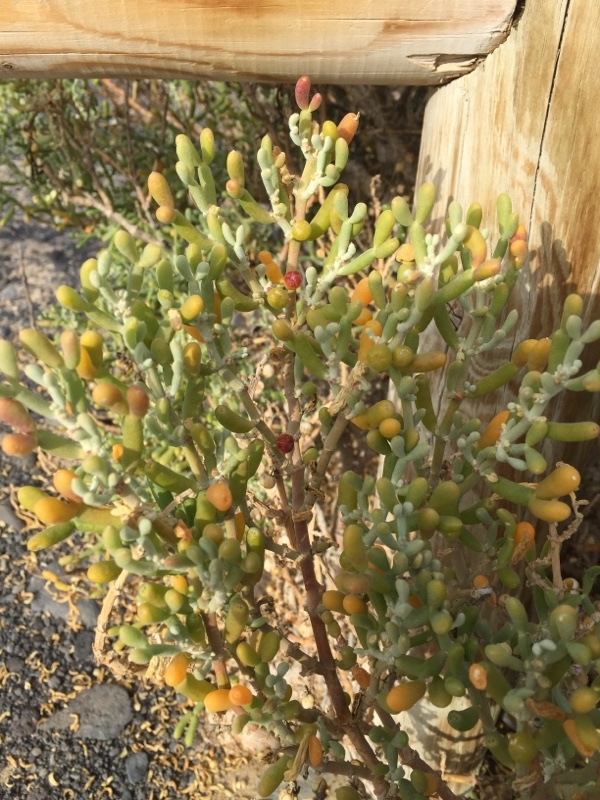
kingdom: Plantae
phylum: Tracheophyta
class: Magnoliopsida
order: Zygophyllales
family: Zygophyllaceae
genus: Tetraena
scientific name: Tetraena fontanesii
